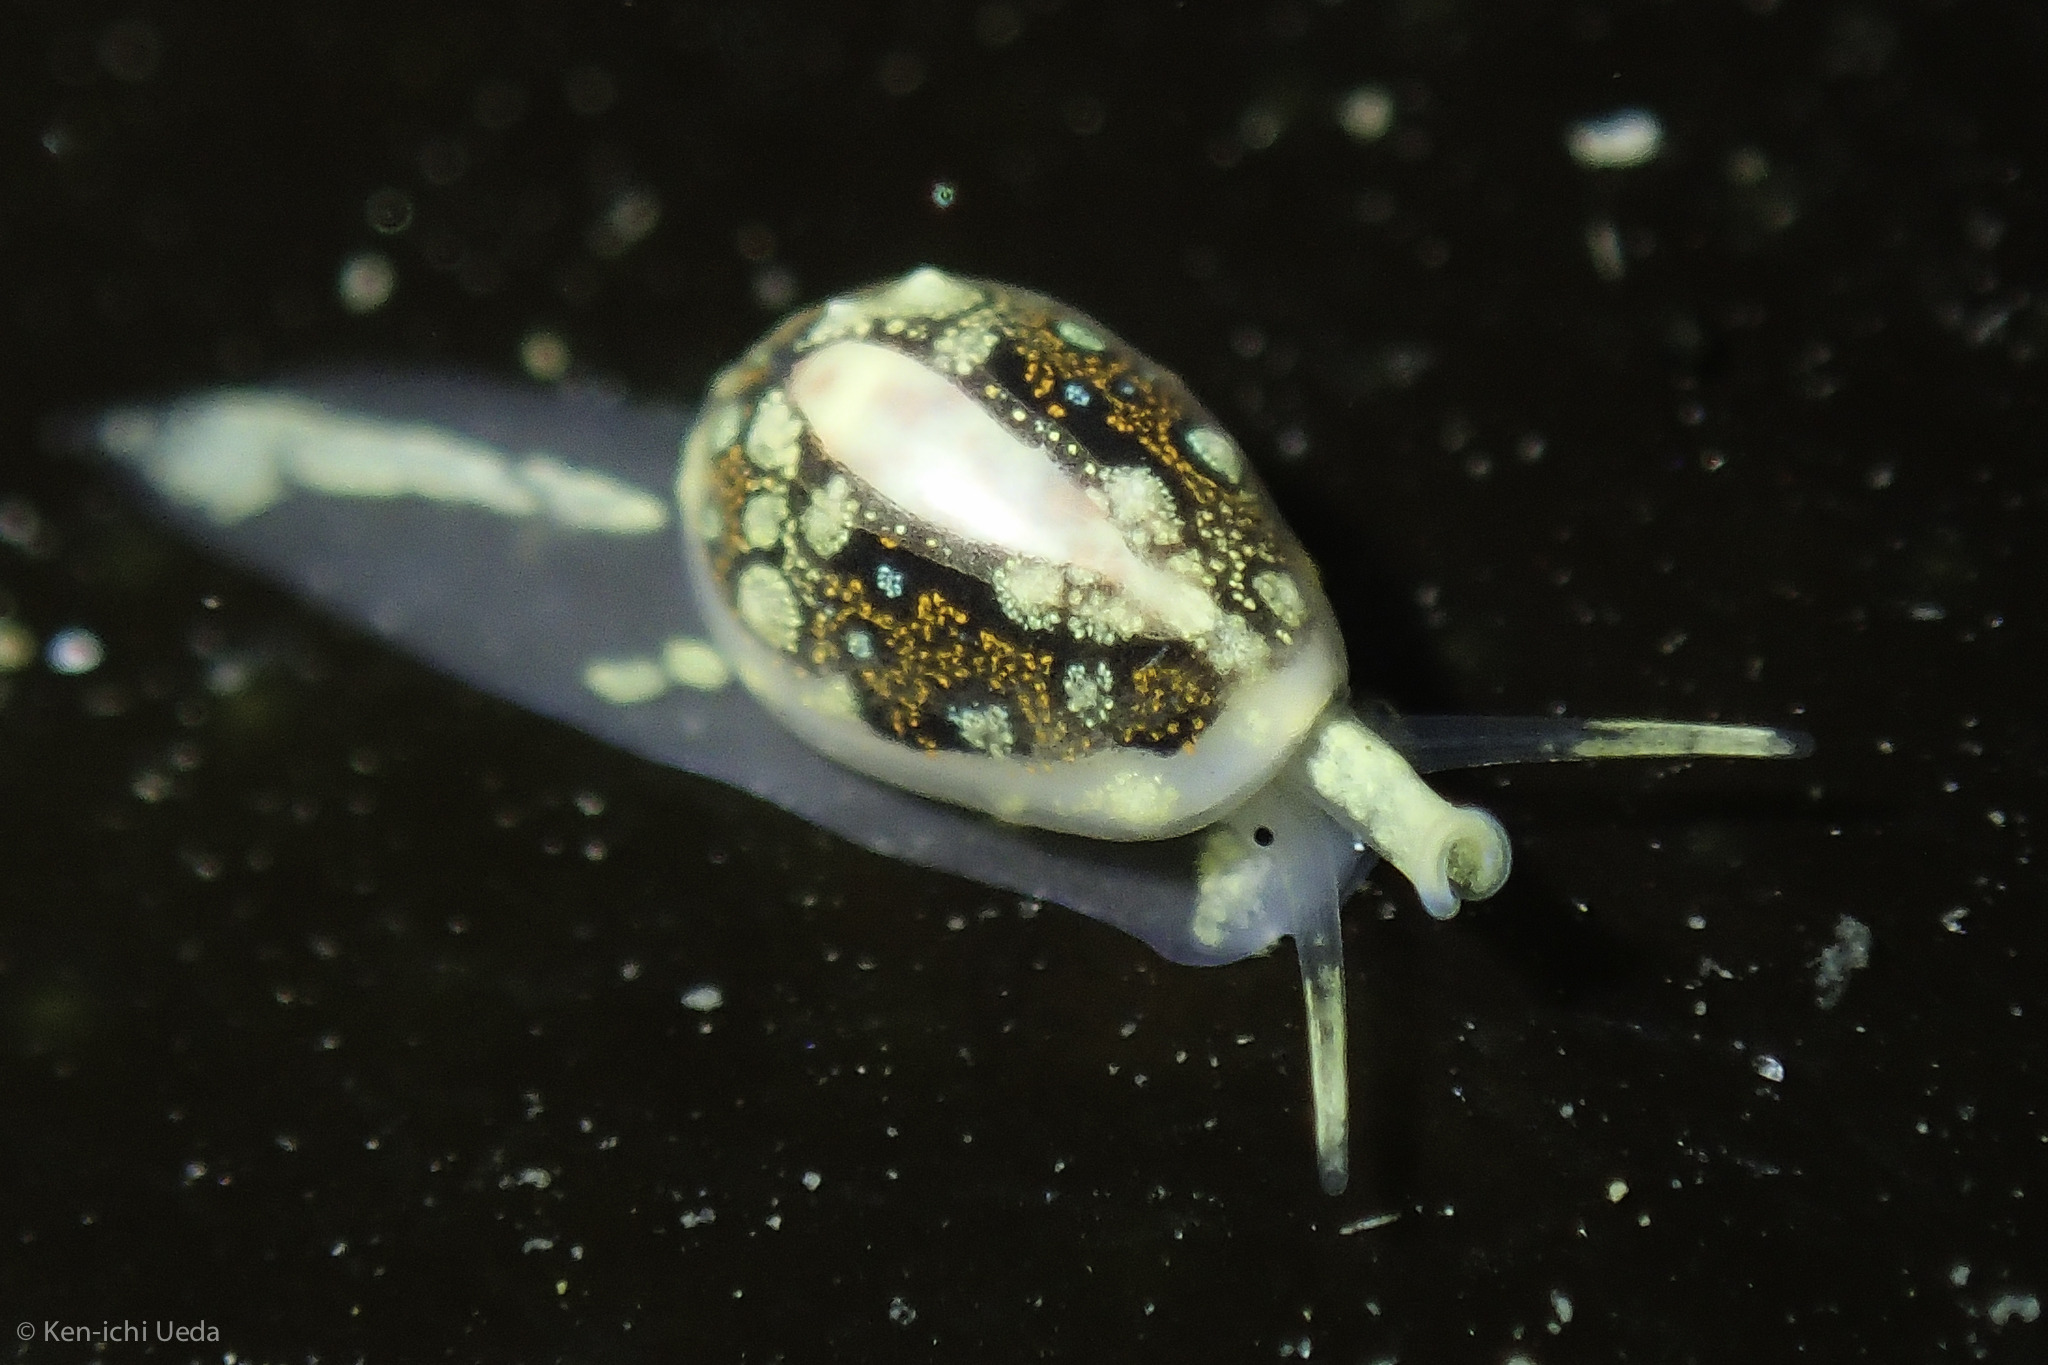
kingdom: Animalia
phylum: Mollusca
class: Gastropoda
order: Neogastropoda
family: Granulinidae
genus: Granulina
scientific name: Granulina margaritula
